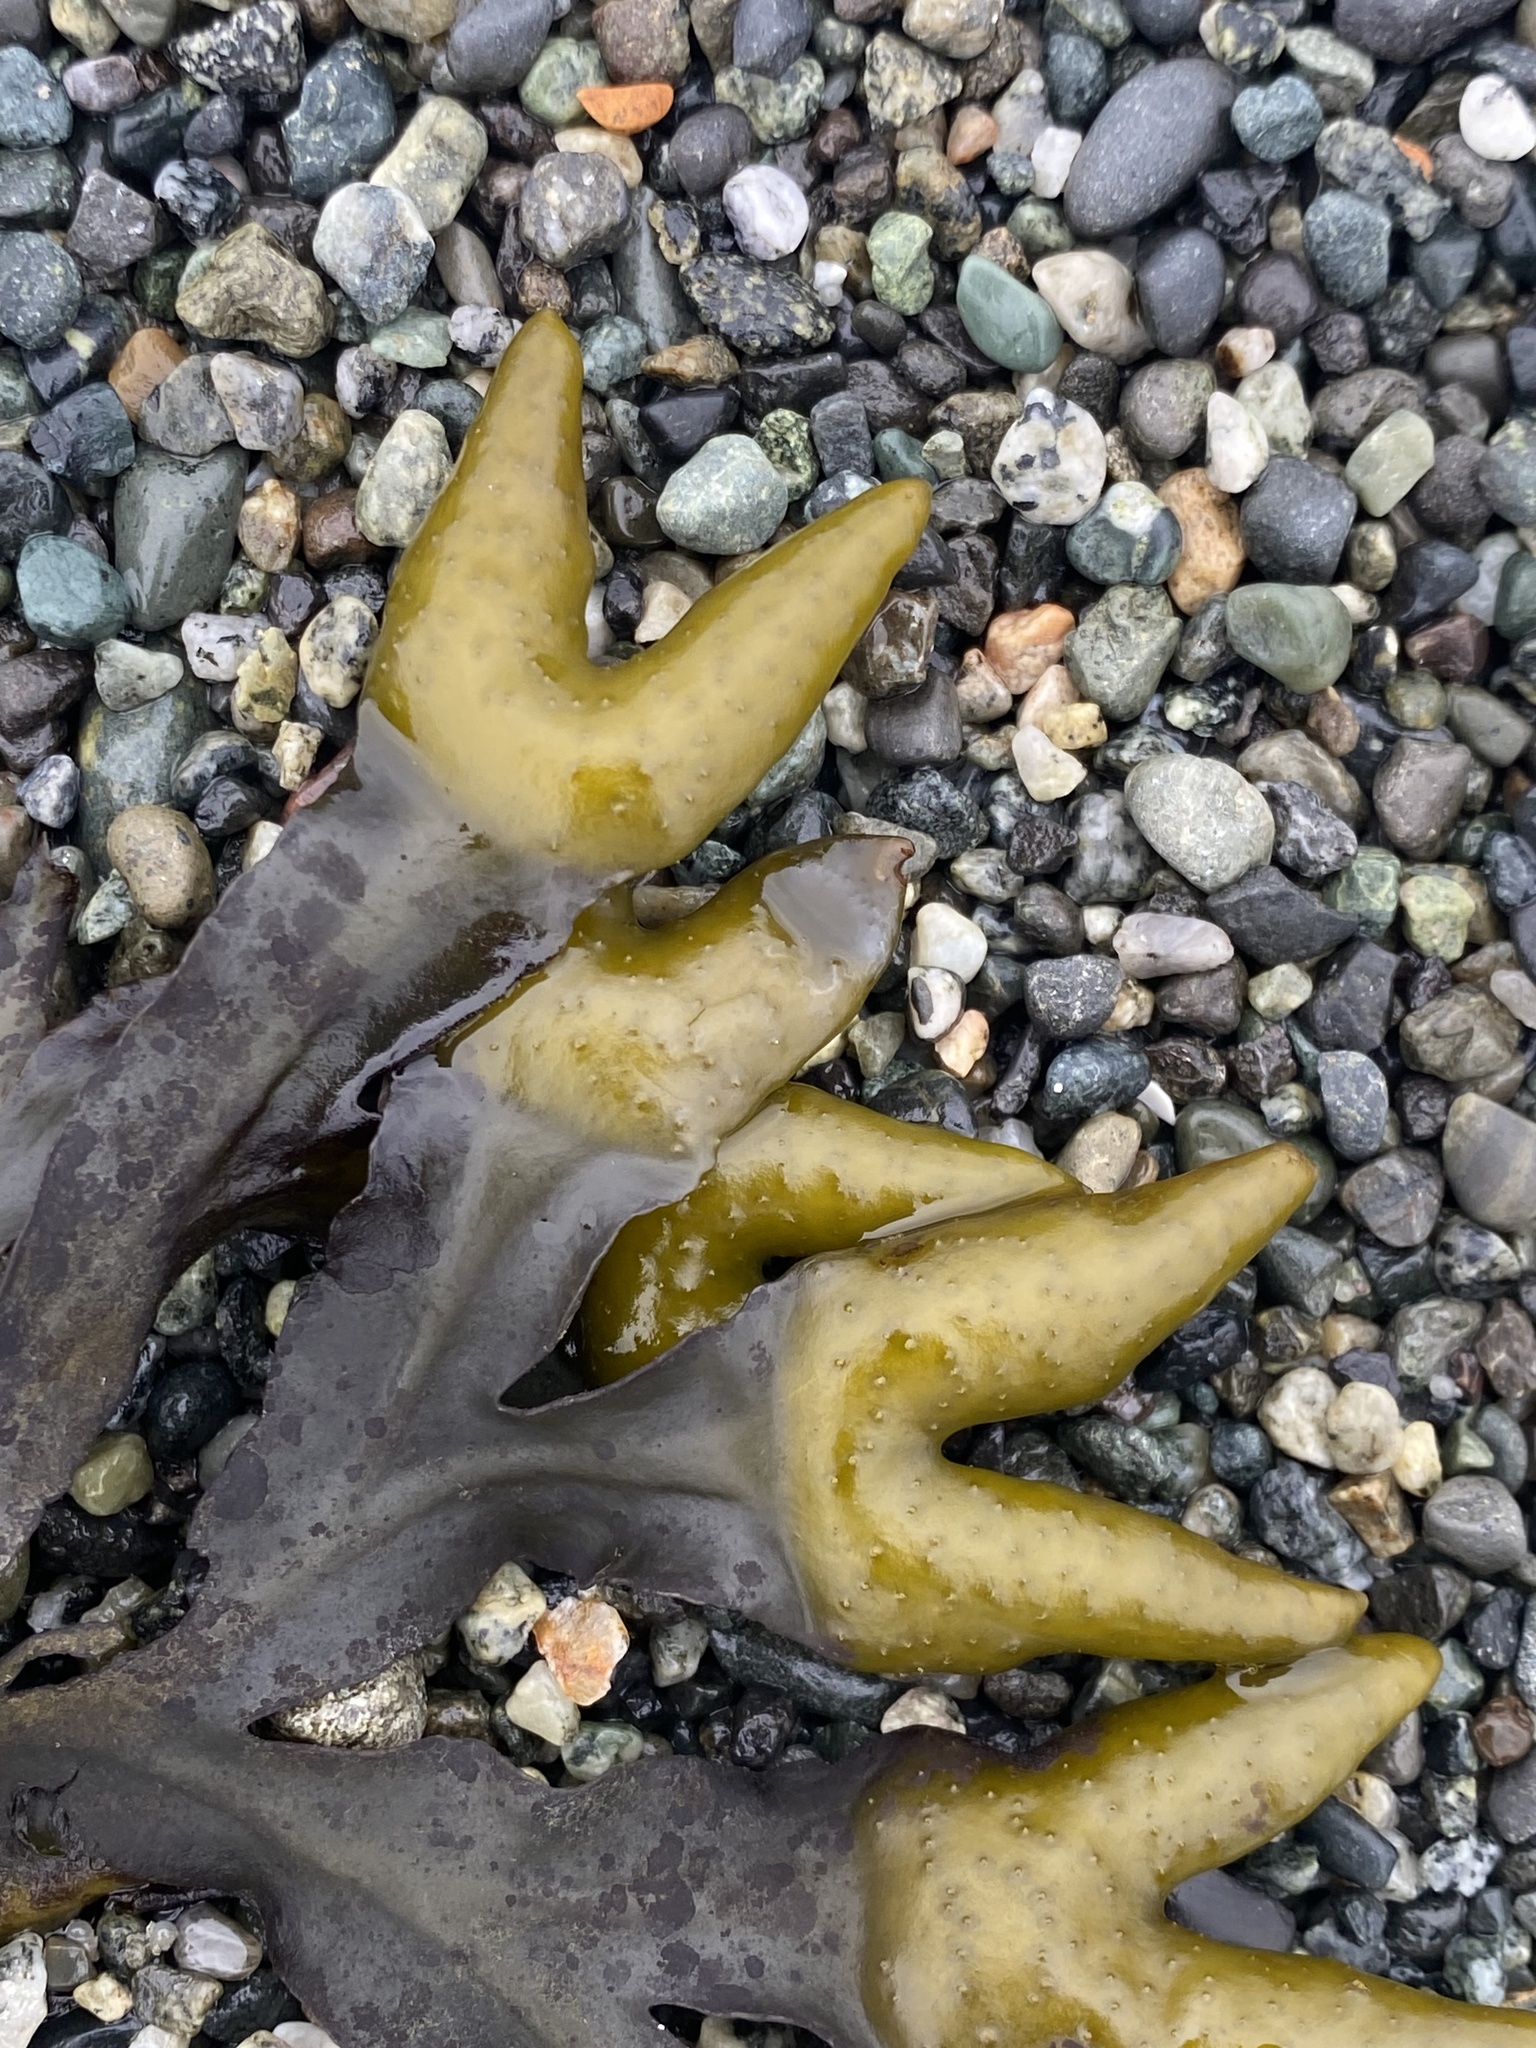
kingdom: Chromista
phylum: Ochrophyta
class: Phaeophyceae
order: Fucales
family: Fucaceae
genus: Fucus
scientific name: Fucus distichus
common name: Rockweed
